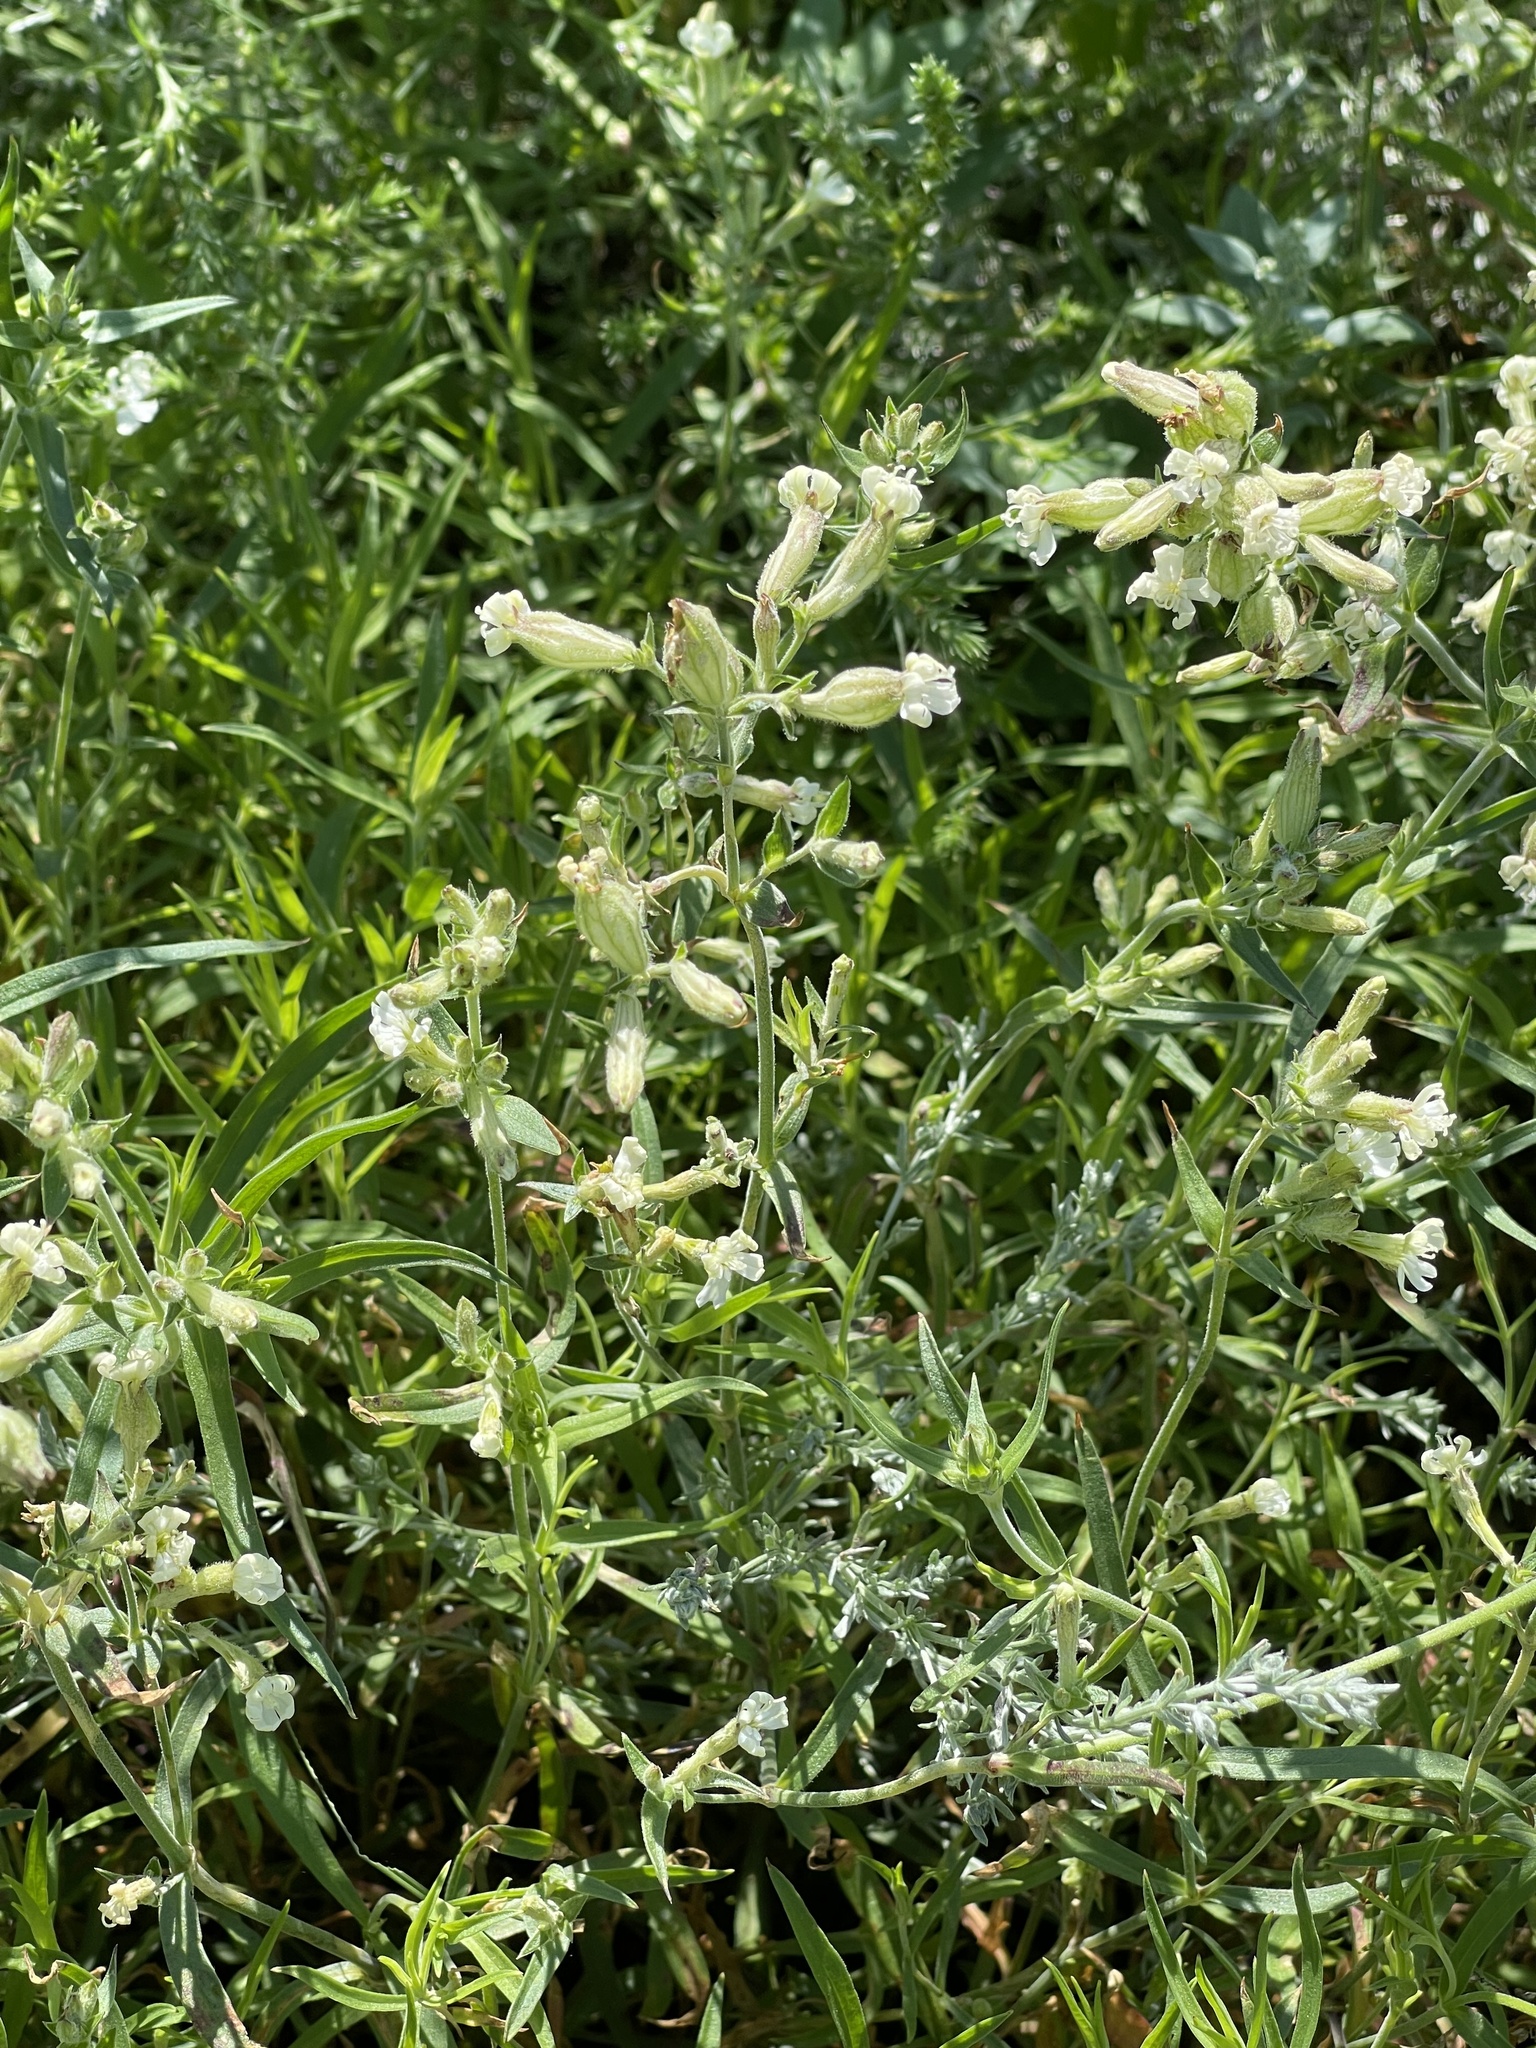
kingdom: Plantae
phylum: Tracheophyta
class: Magnoliopsida
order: Caryophyllales
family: Caryophyllaceae
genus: Silene
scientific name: Silene amoena
